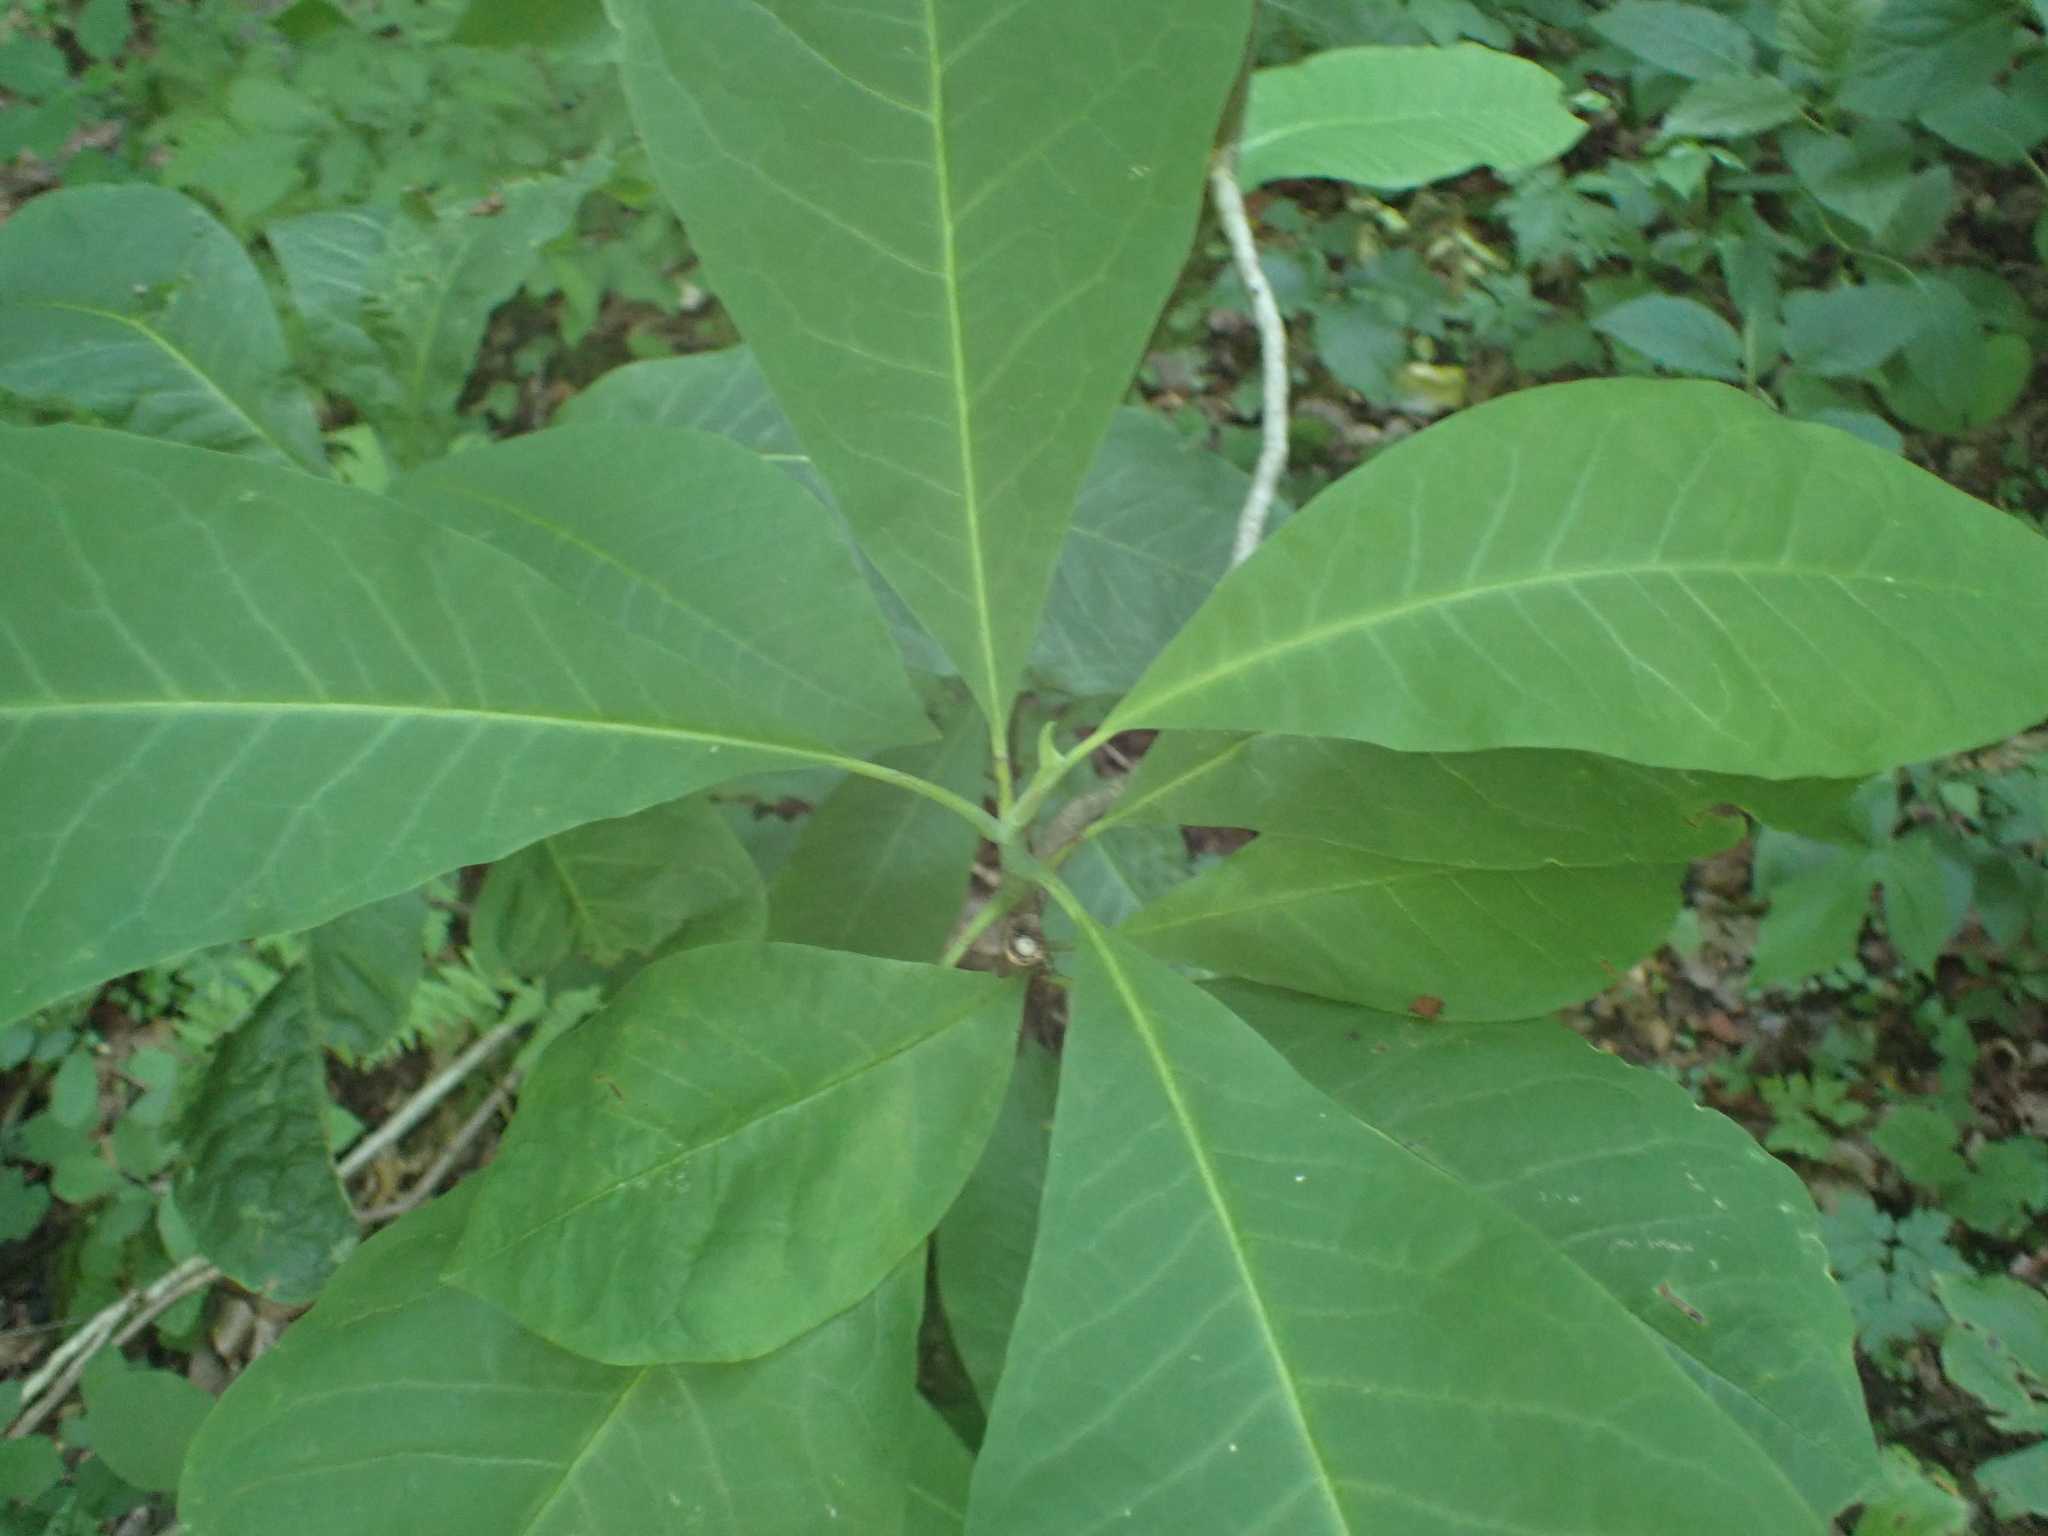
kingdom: Plantae
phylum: Tracheophyta
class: Magnoliopsida
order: Magnoliales
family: Magnoliaceae
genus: Magnolia
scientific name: Magnolia tripetala
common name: Umbrella magnolia
